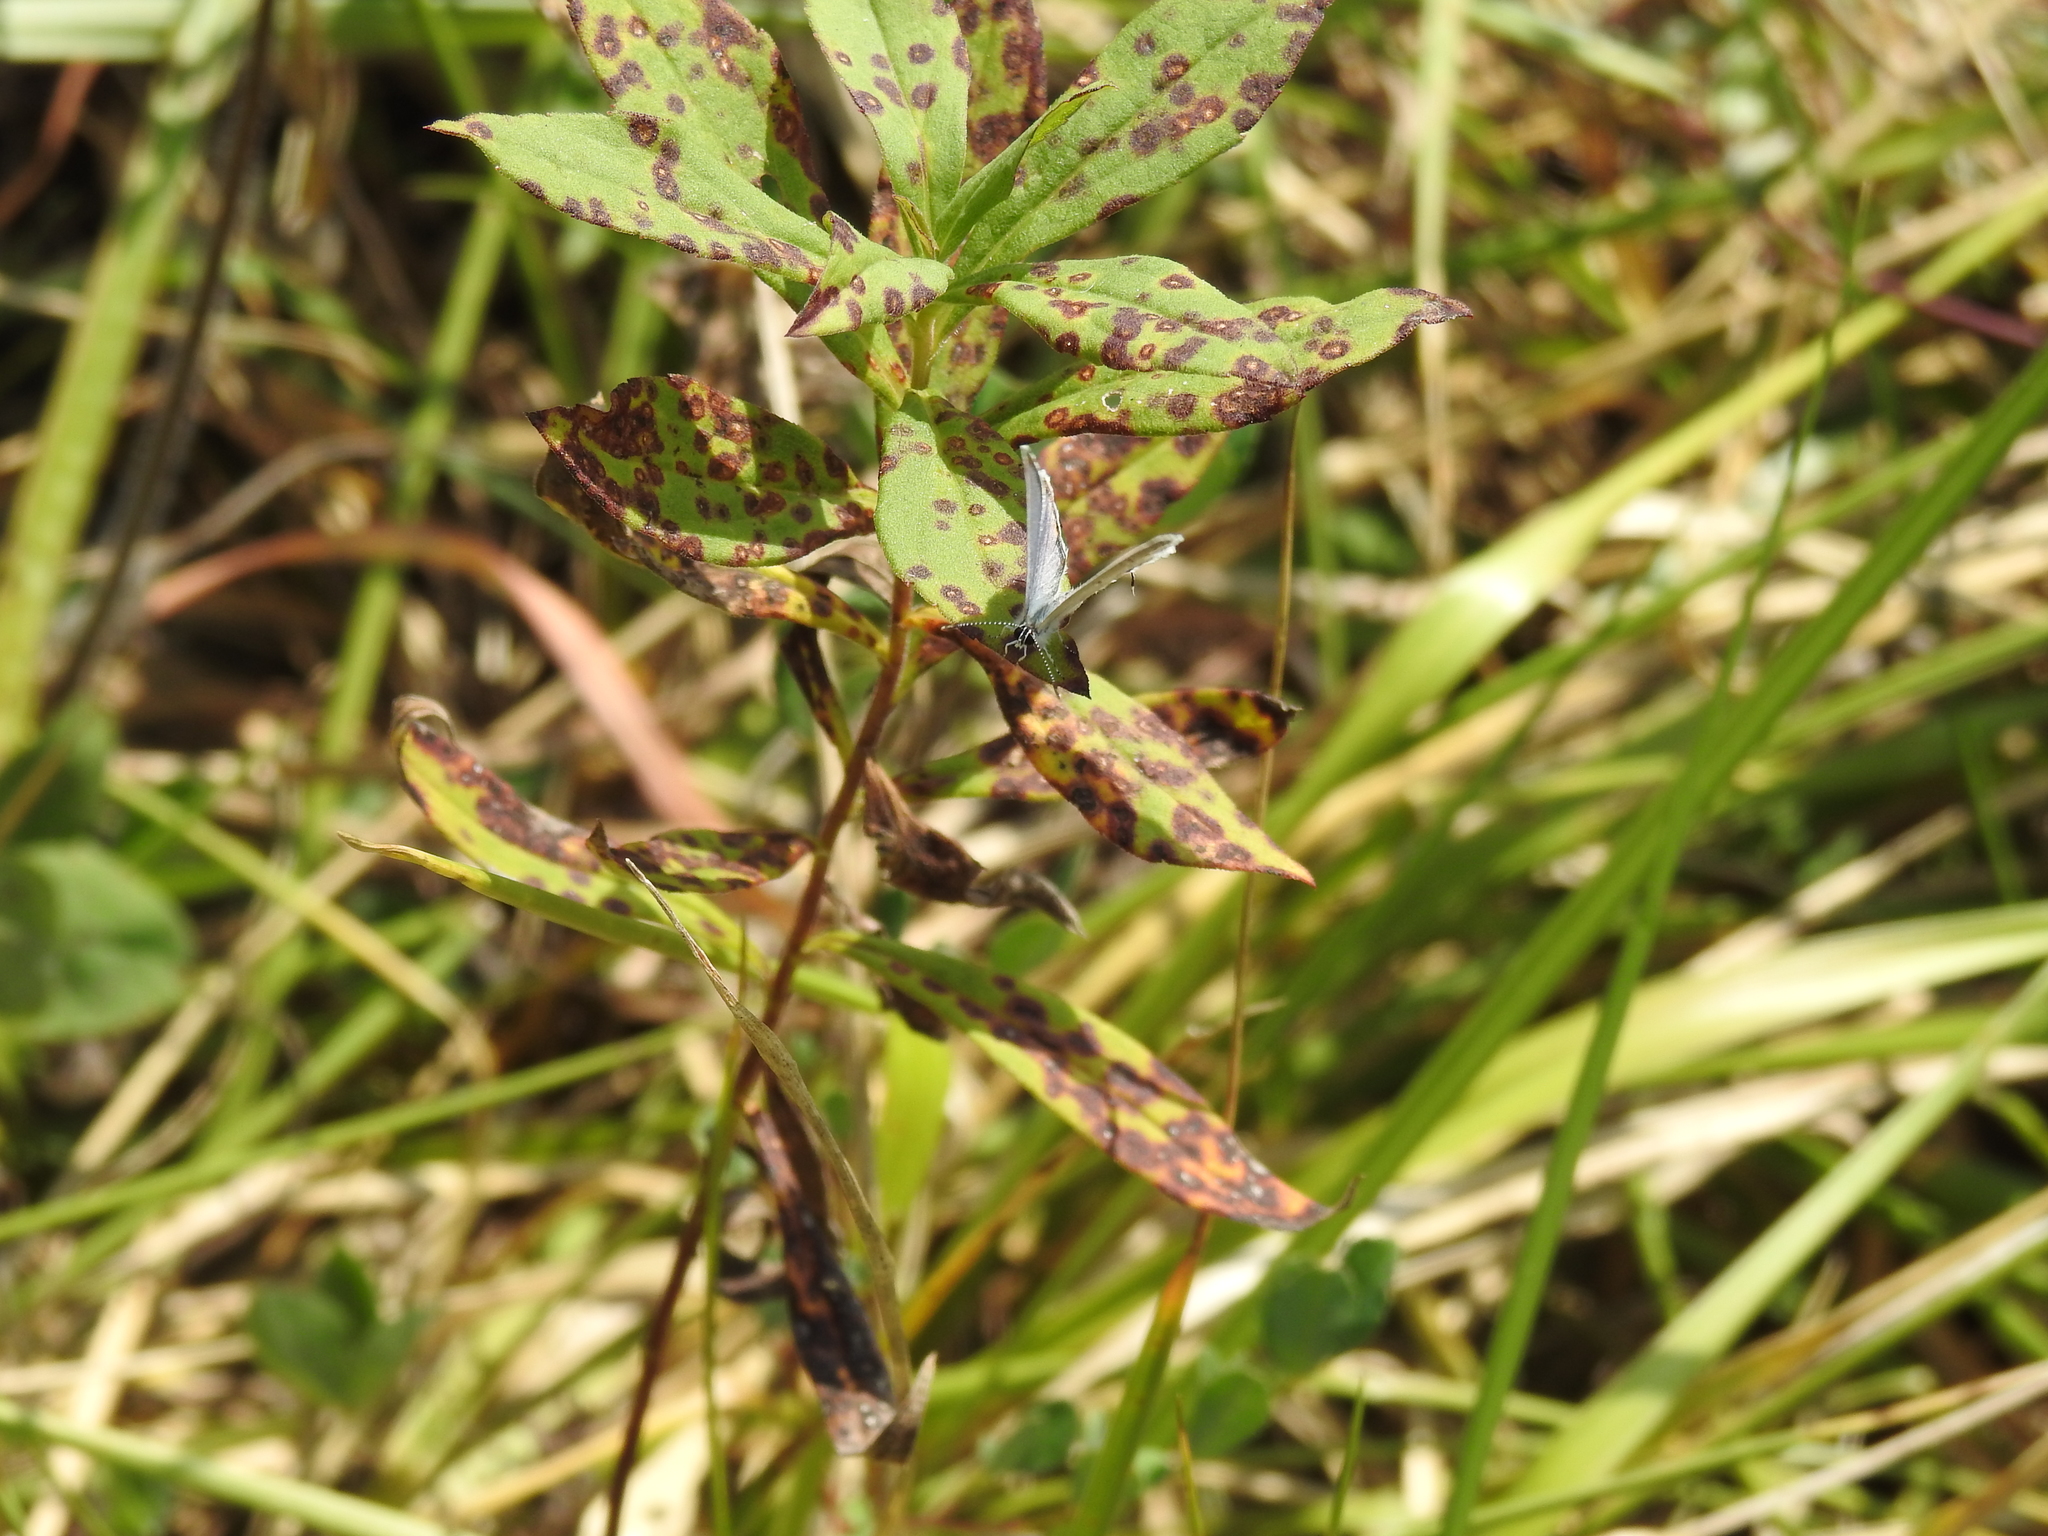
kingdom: Animalia
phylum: Arthropoda
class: Insecta
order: Lepidoptera
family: Lycaenidae
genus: Elkalyce
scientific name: Elkalyce comyntas
